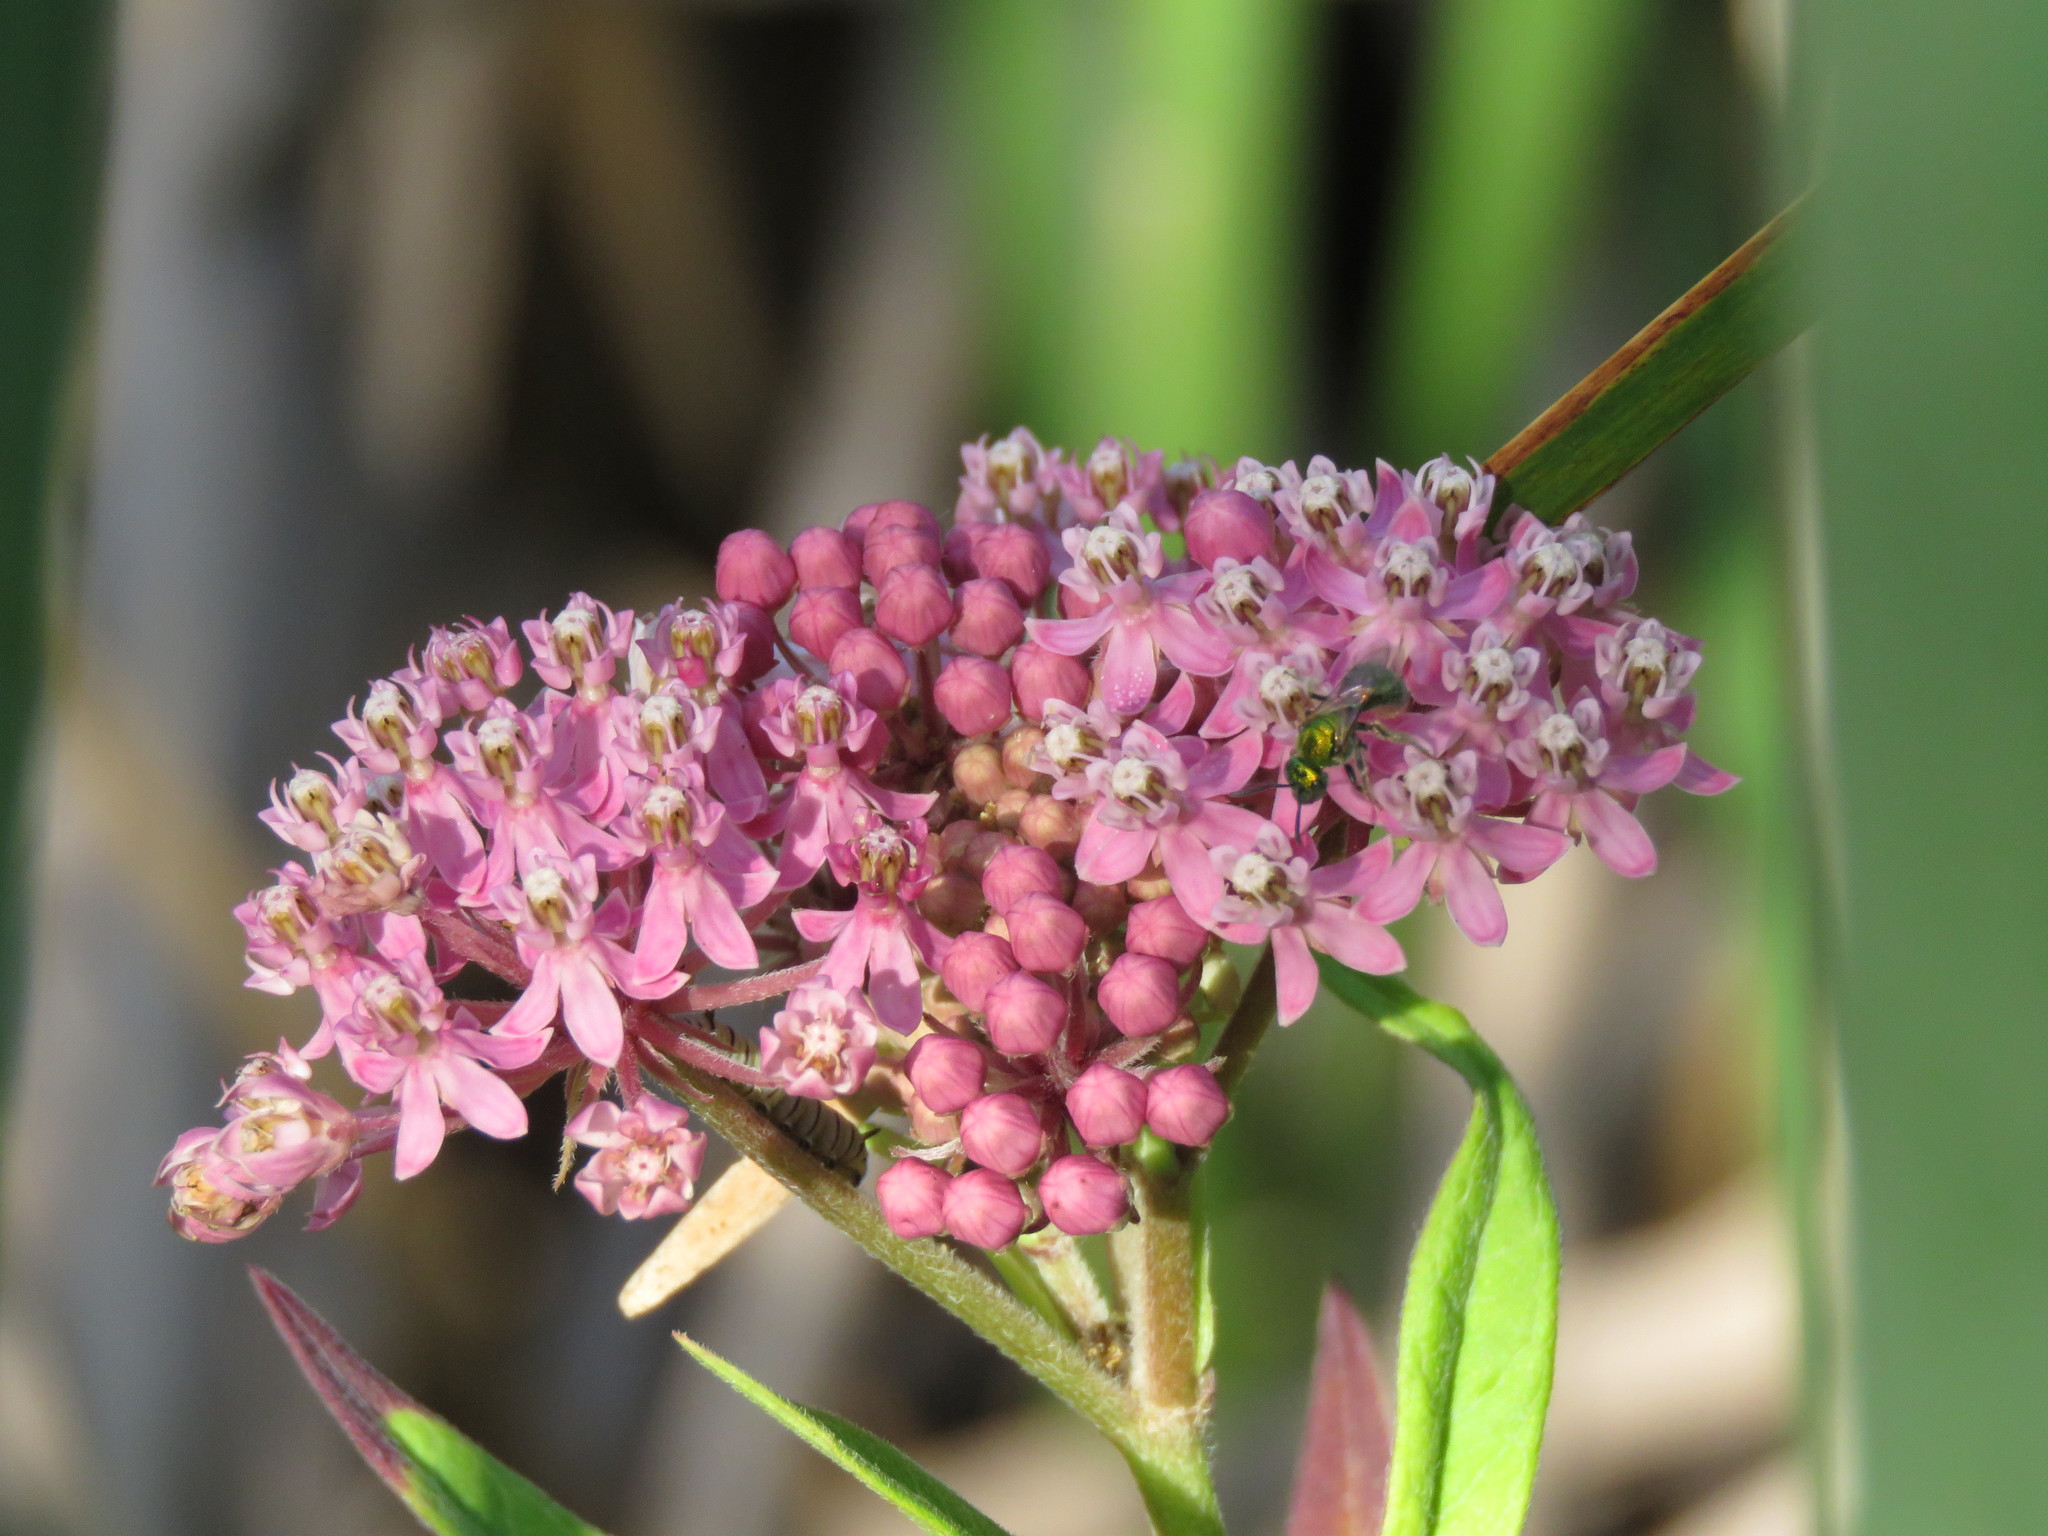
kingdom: Plantae
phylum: Tracheophyta
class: Magnoliopsida
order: Gentianales
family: Apocynaceae
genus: Asclepias
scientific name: Asclepias incarnata
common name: Swamp milkweed
